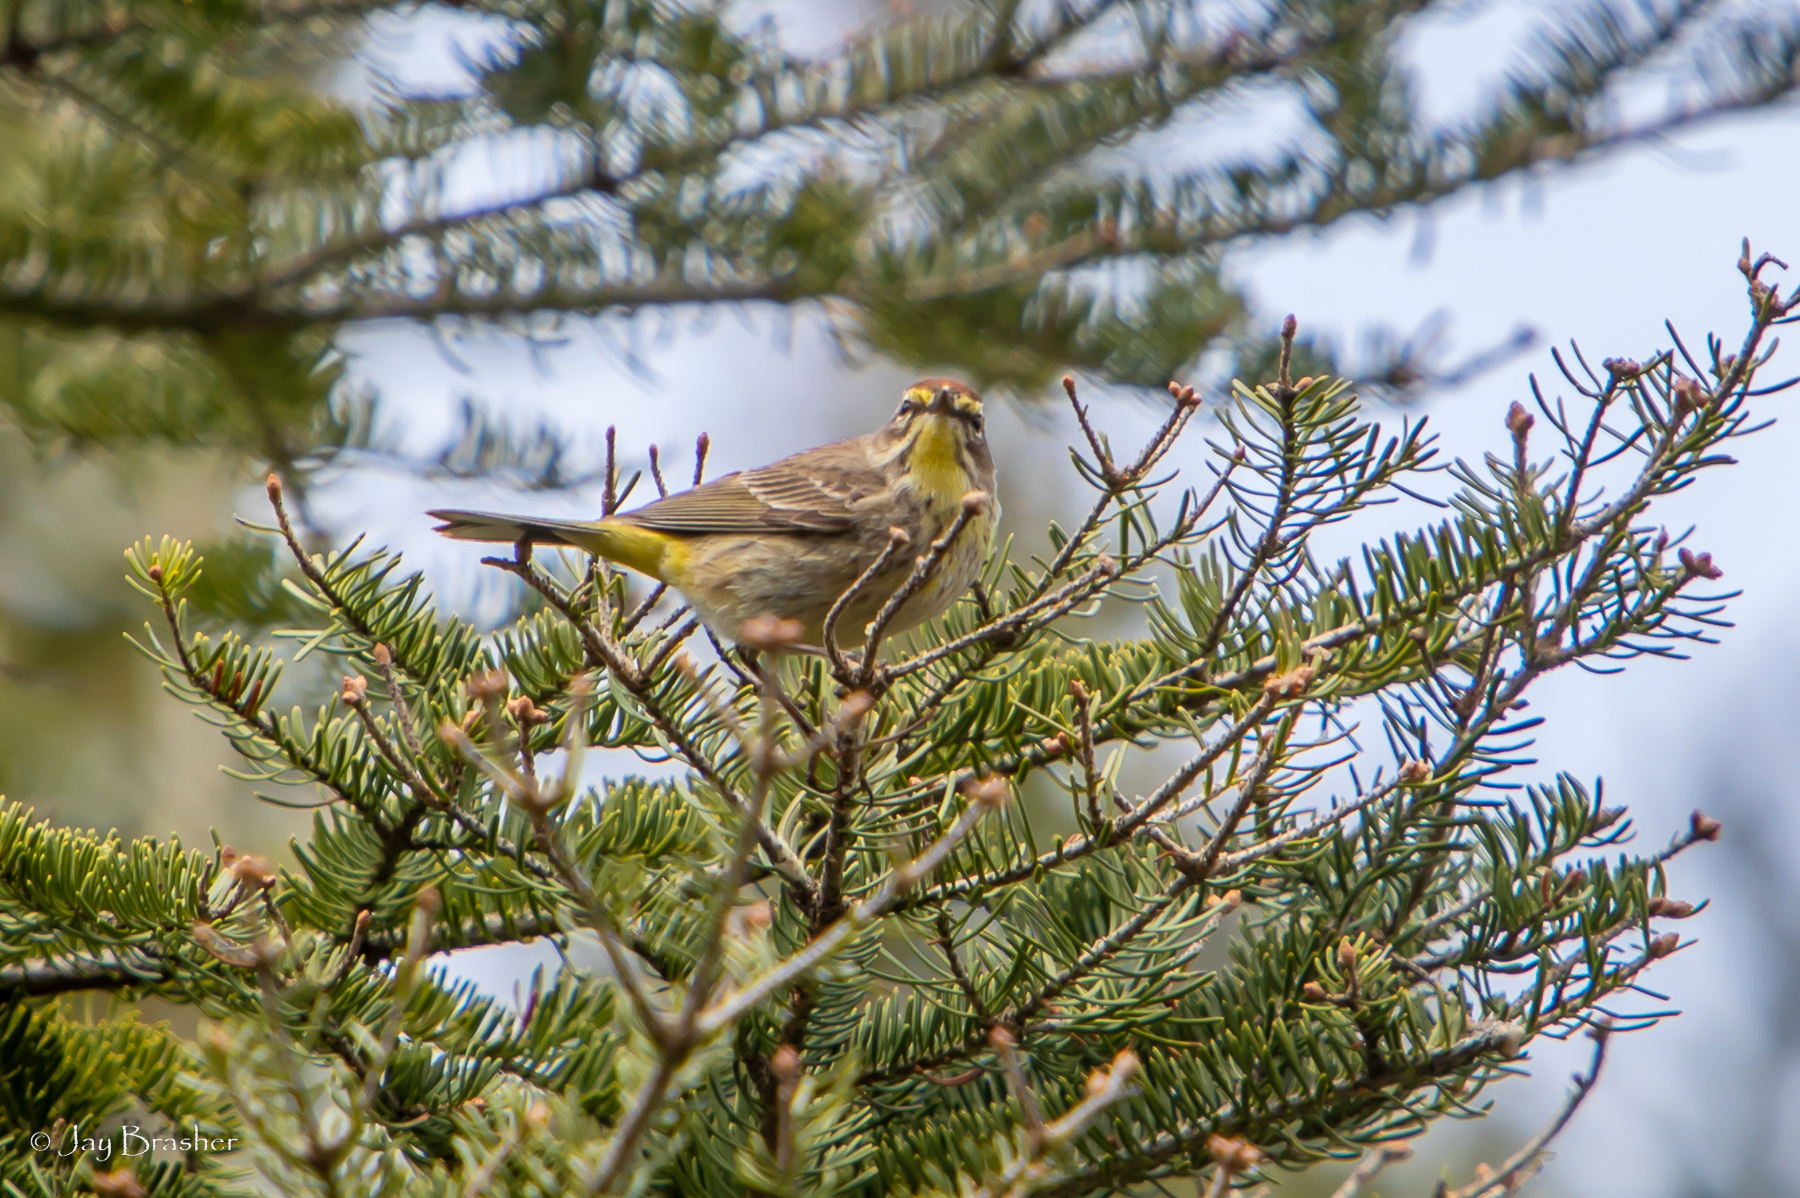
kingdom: Animalia
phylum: Chordata
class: Aves
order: Passeriformes
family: Parulidae
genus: Setophaga
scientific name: Setophaga palmarum
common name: Palm warbler
